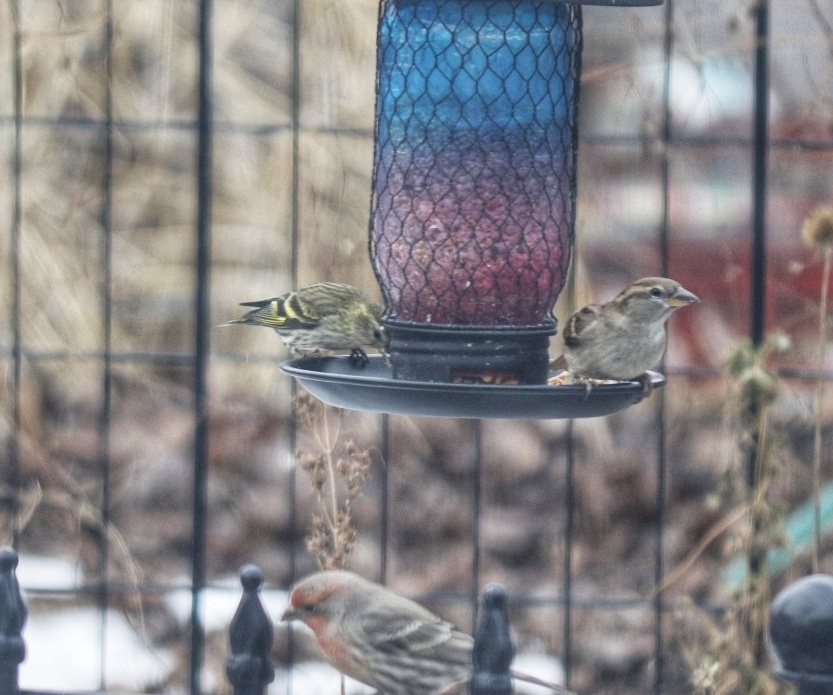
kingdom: Animalia
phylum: Chordata
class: Aves
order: Passeriformes
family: Fringillidae
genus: Spinus
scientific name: Spinus pinus
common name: Pine siskin
